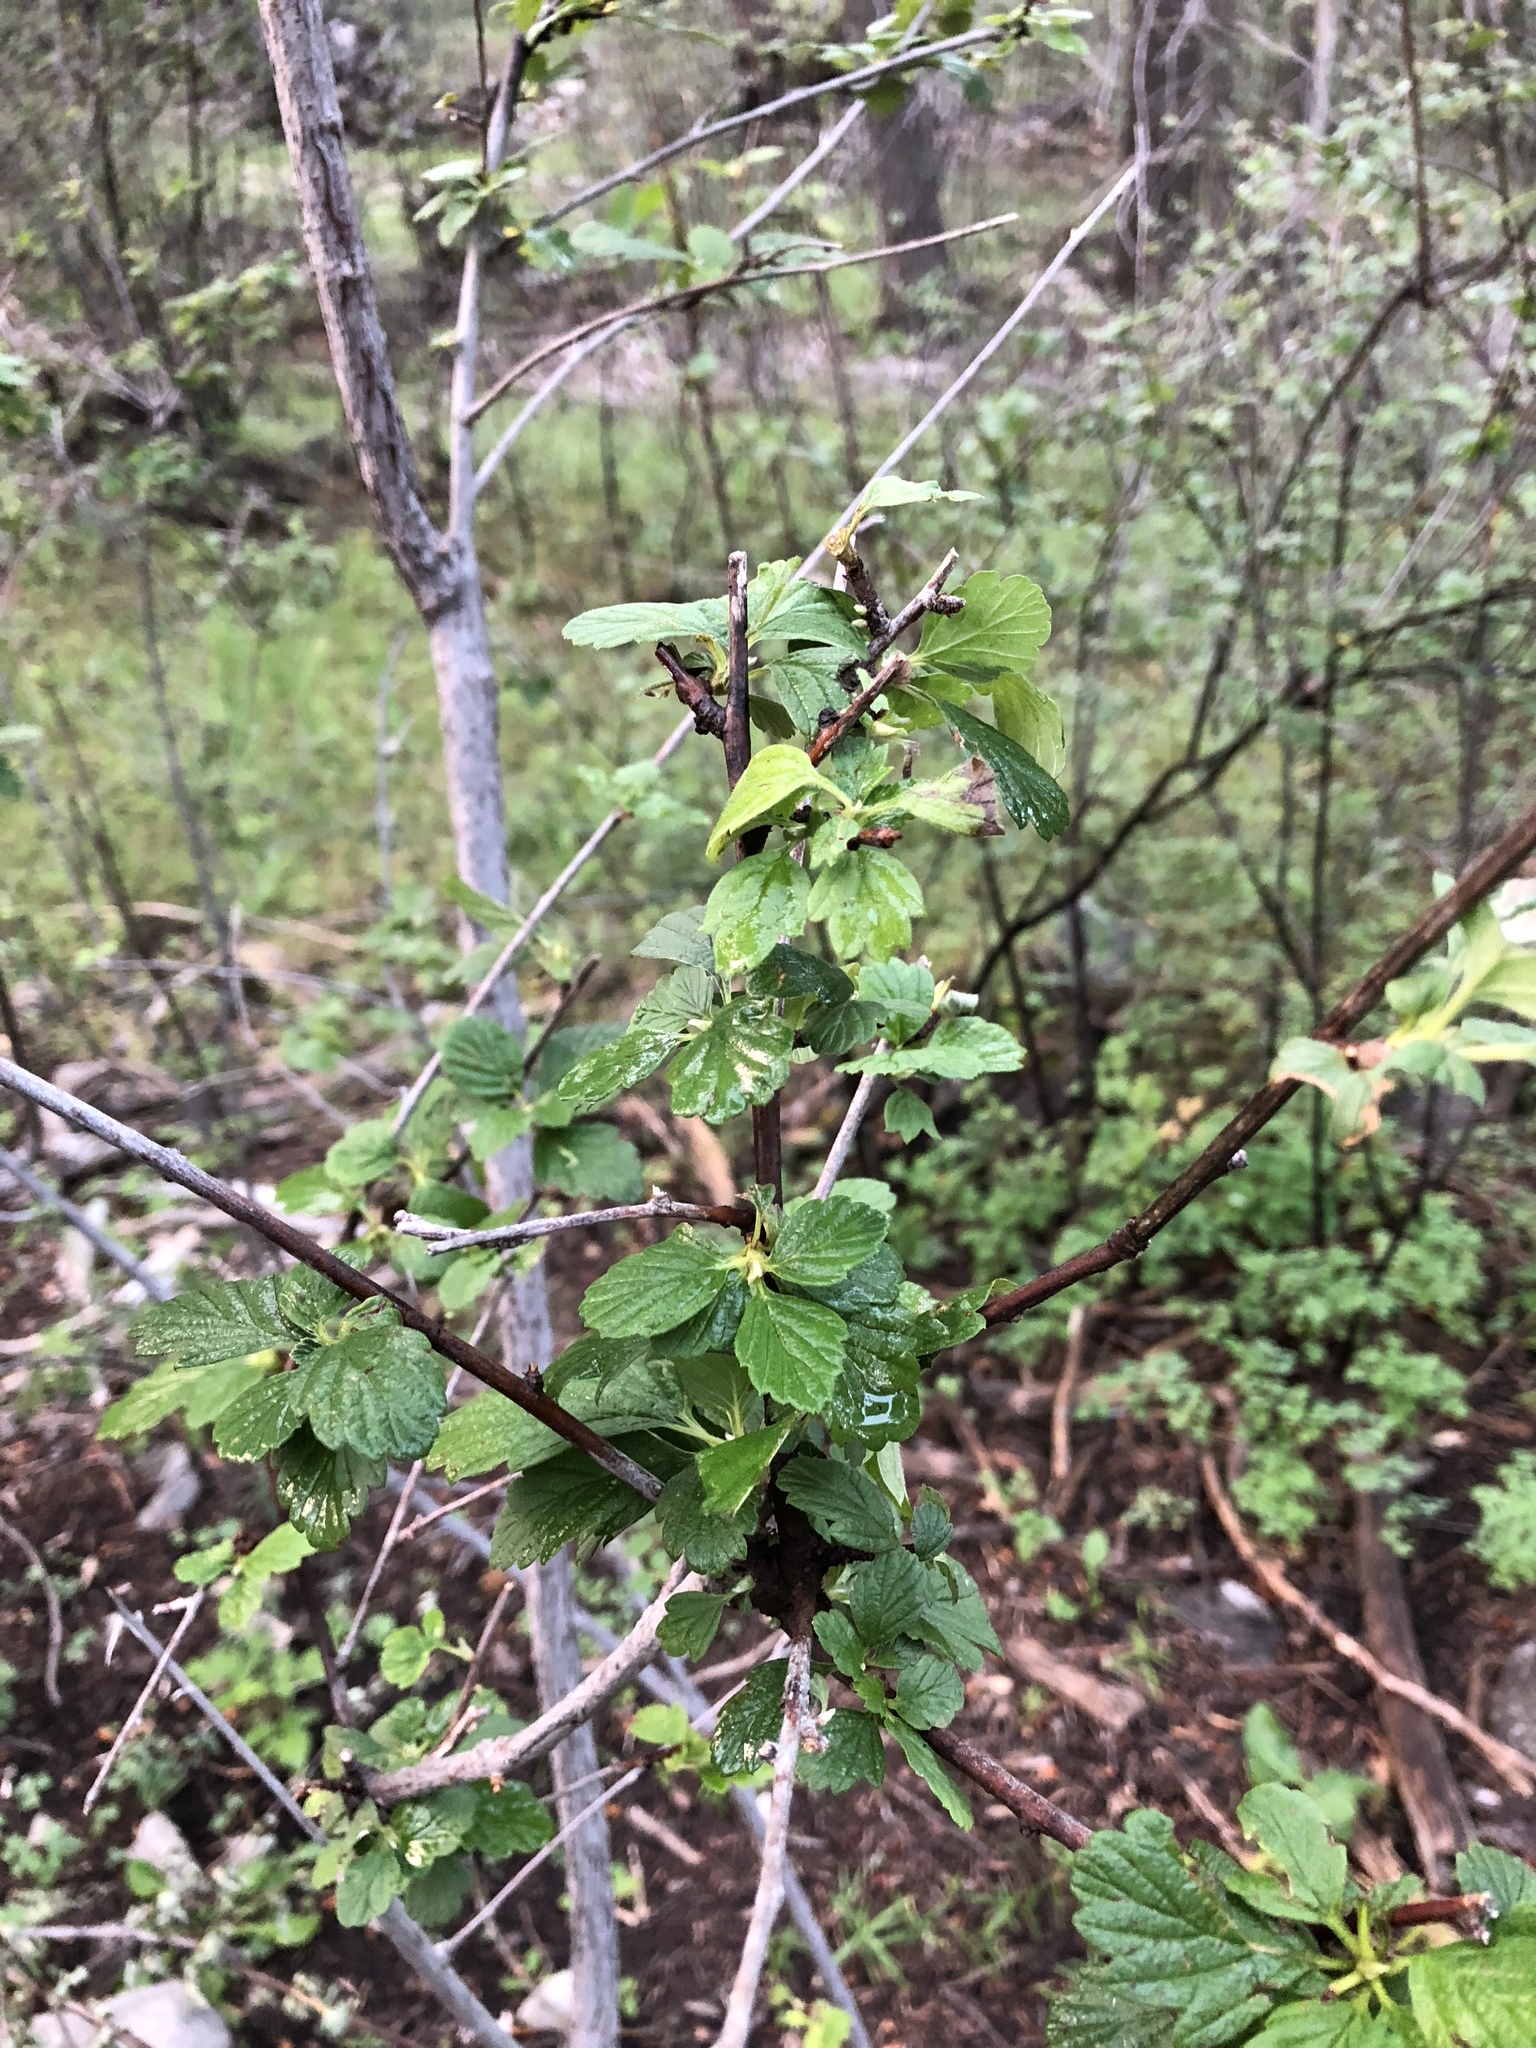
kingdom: Plantae
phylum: Tracheophyta
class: Magnoliopsida
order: Rosales
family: Rosaceae
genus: Cercocarpus
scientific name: Cercocarpus montanus
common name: Alder-leaf cercocarpus
